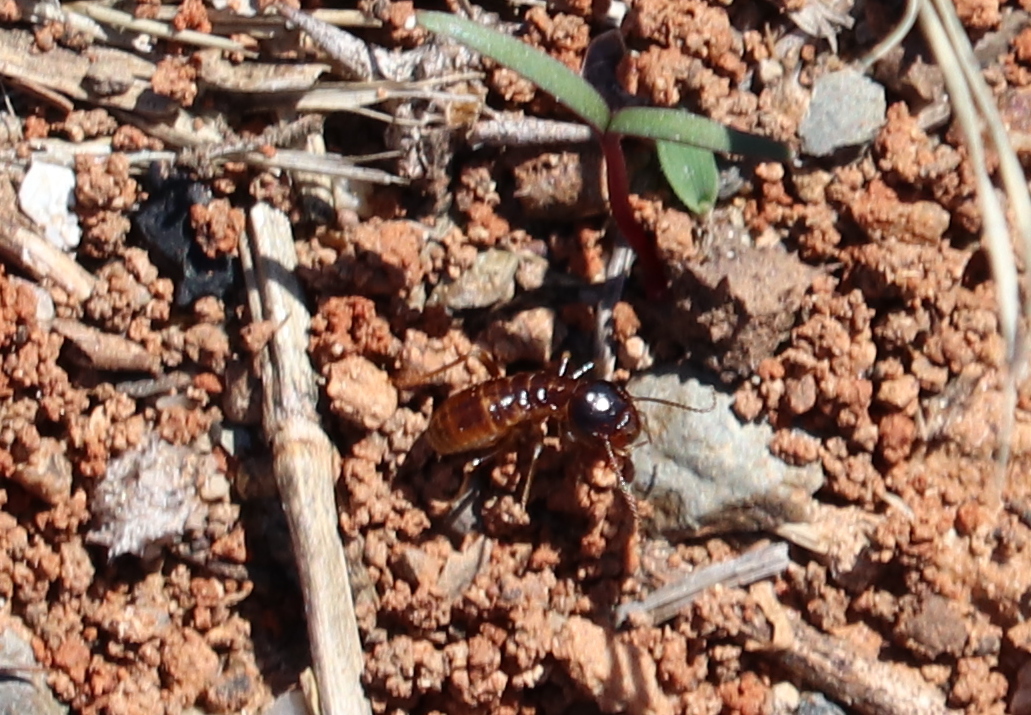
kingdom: Animalia
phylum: Arthropoda
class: Insecta
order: Blattodea
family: Hodotermitidae
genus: Microhodotermes
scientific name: Microhodotermes viator
